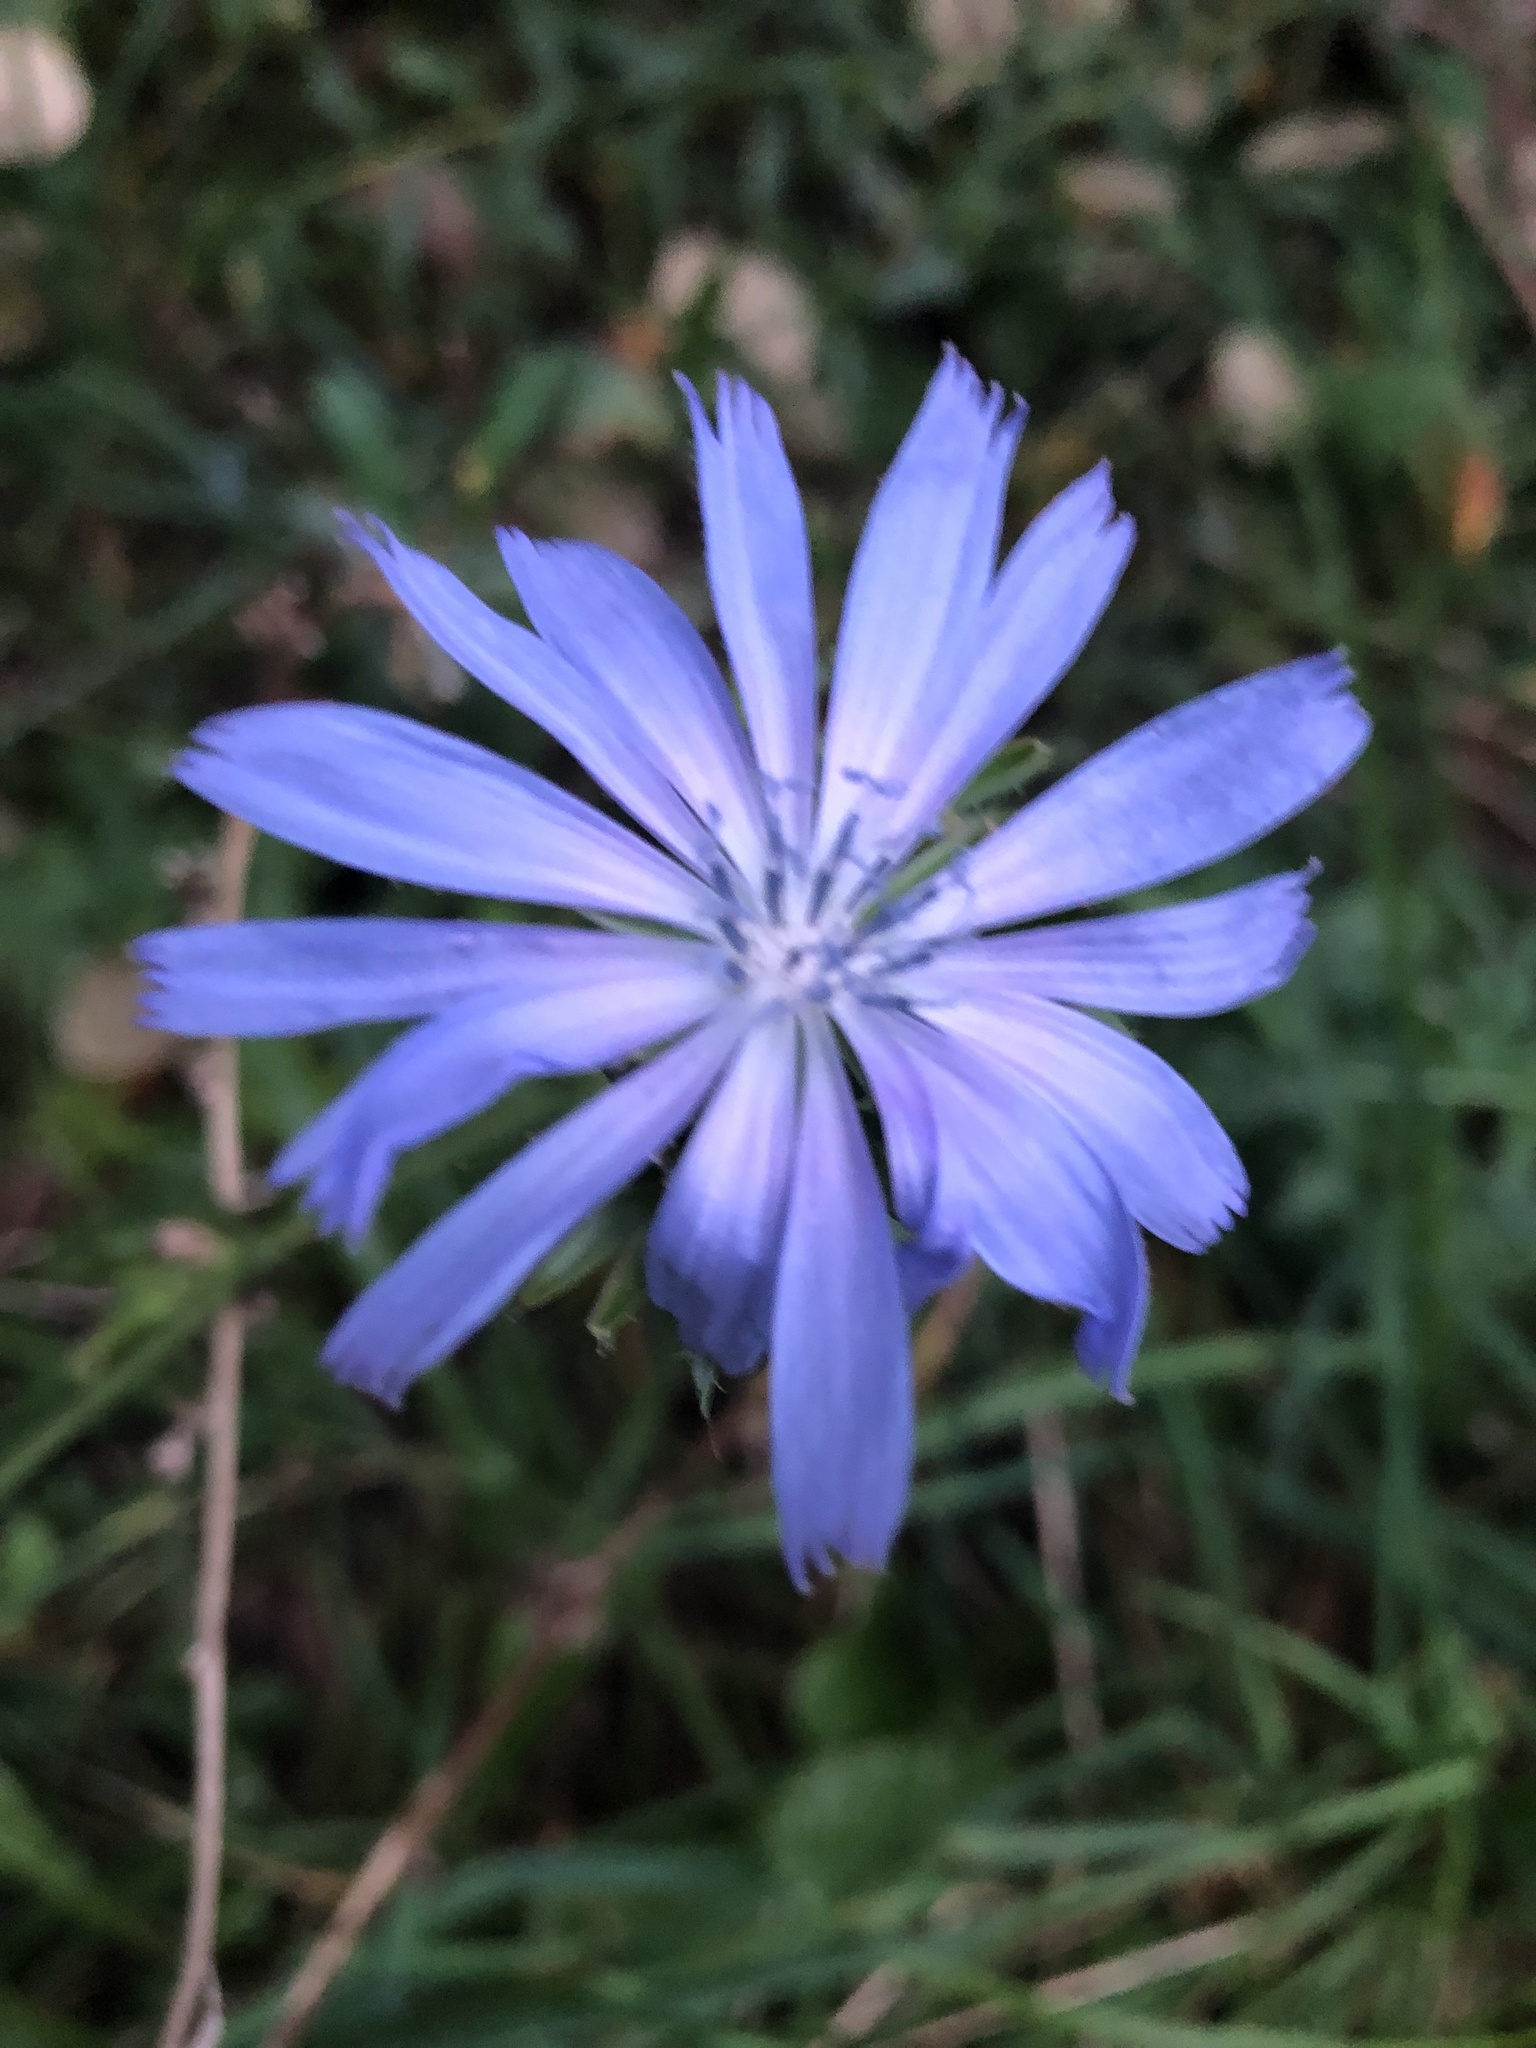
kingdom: Plantae
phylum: Tracheophyta
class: Magnoliopsida
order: Asterales
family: Asteraceae
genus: Cichorium
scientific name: Cichorium intybus
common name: Chicory
